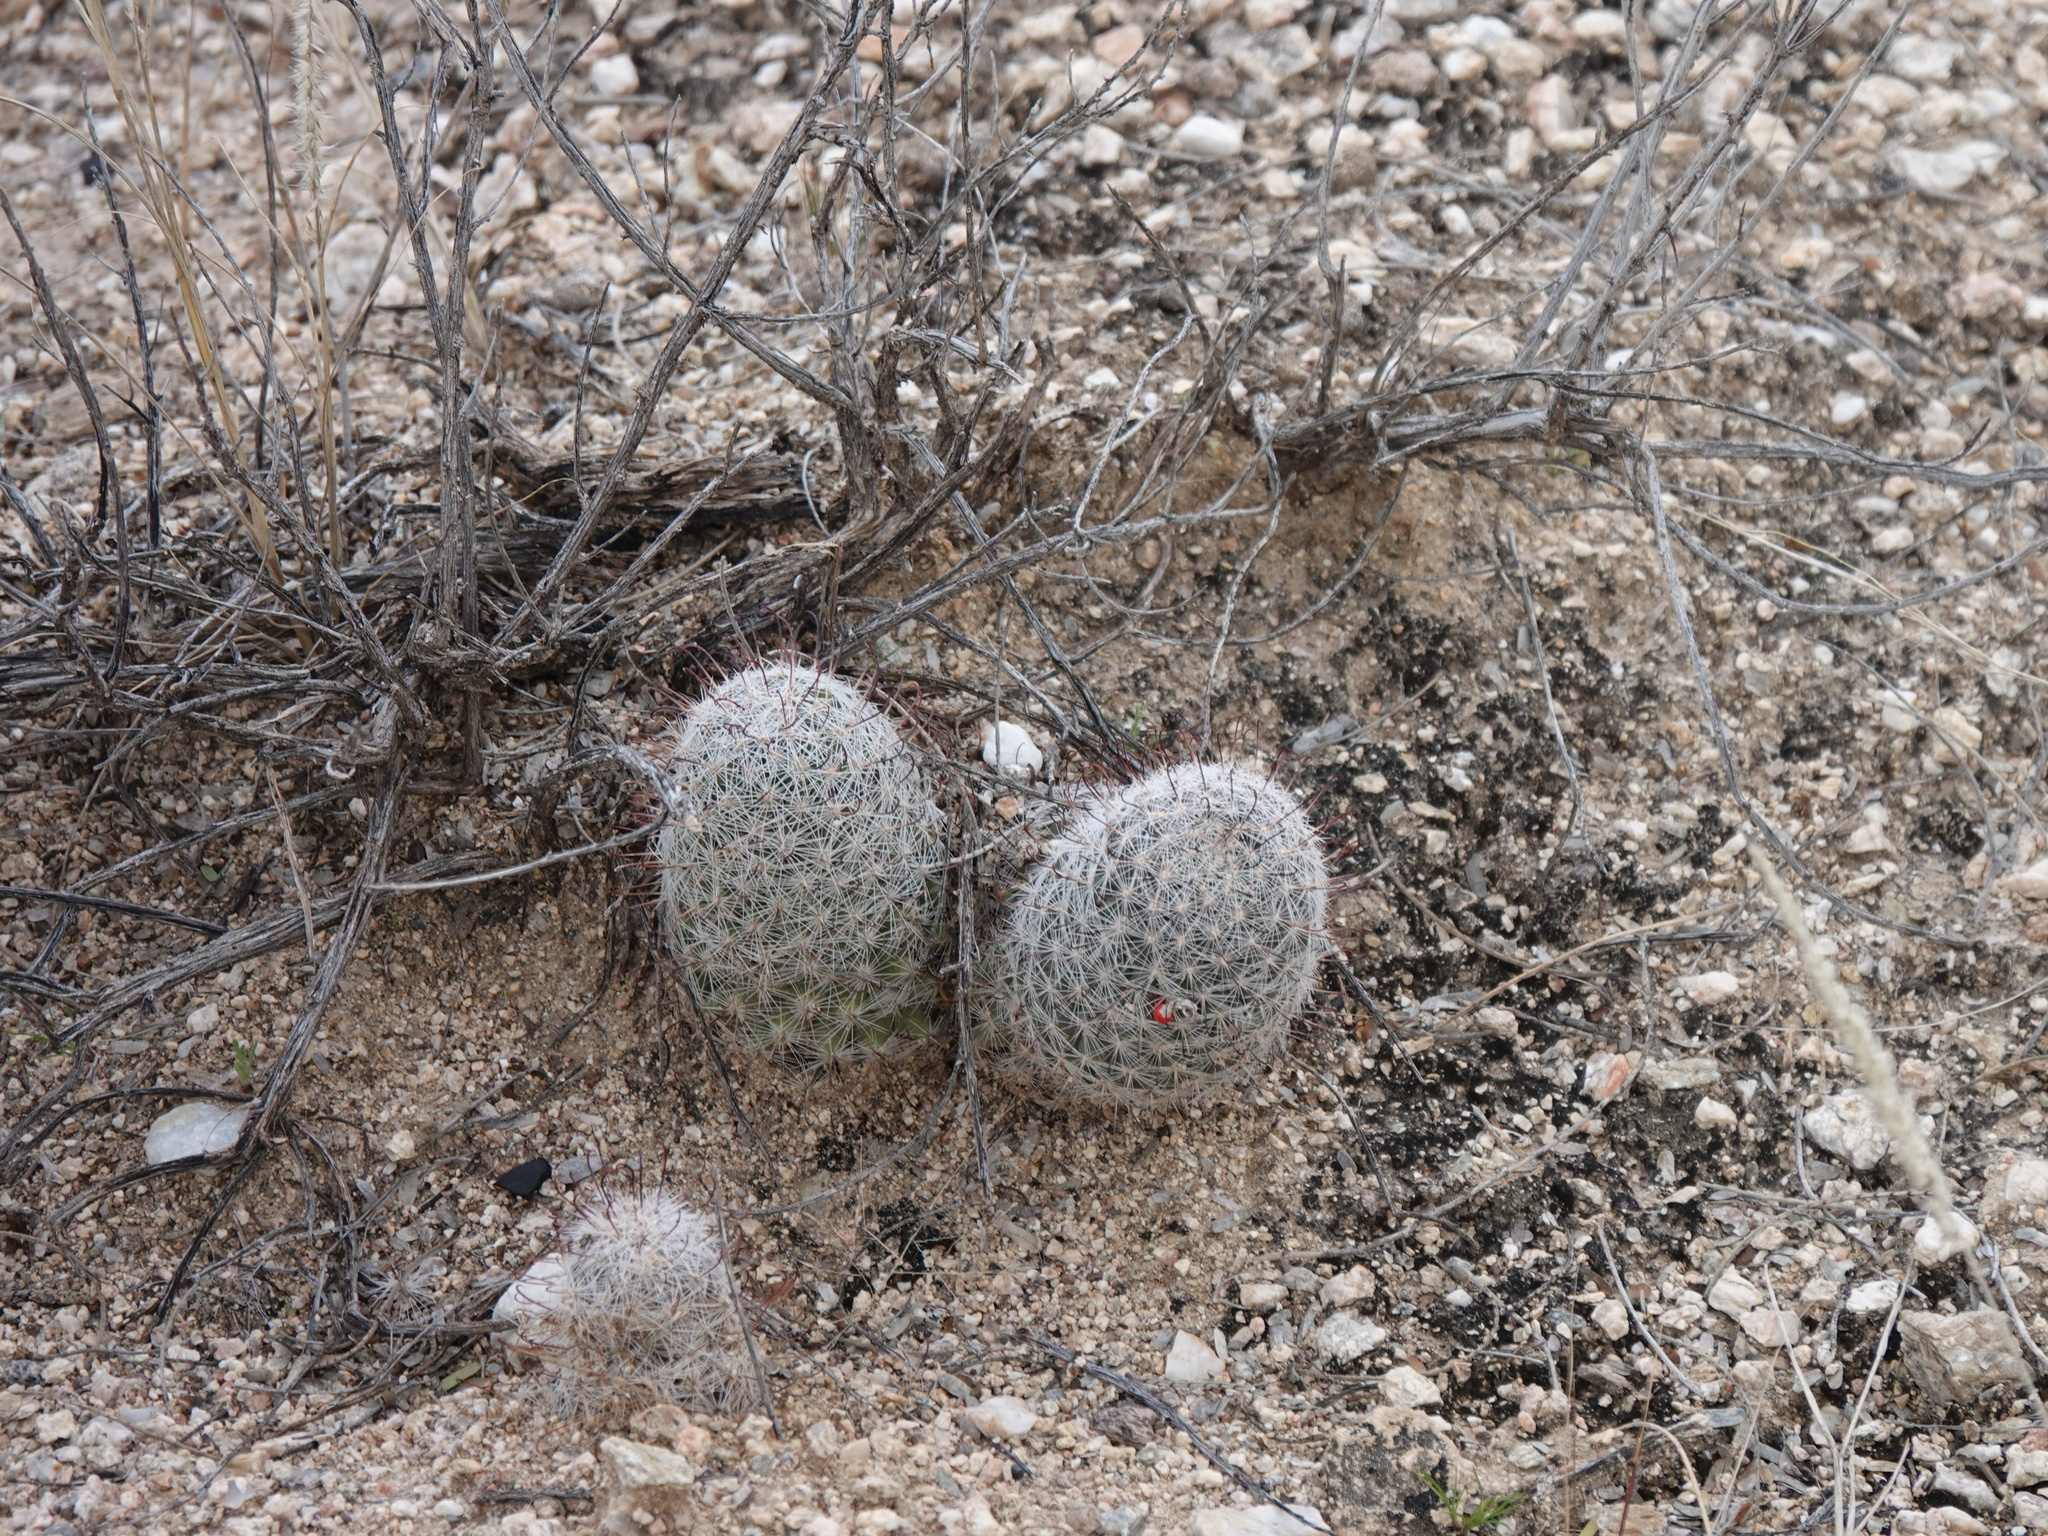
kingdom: Plantae
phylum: Tracheophyta
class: Magnoliopsida
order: Caryophyllales
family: Cactaceae
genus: Cochemiea
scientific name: Cochemiea grahamii
